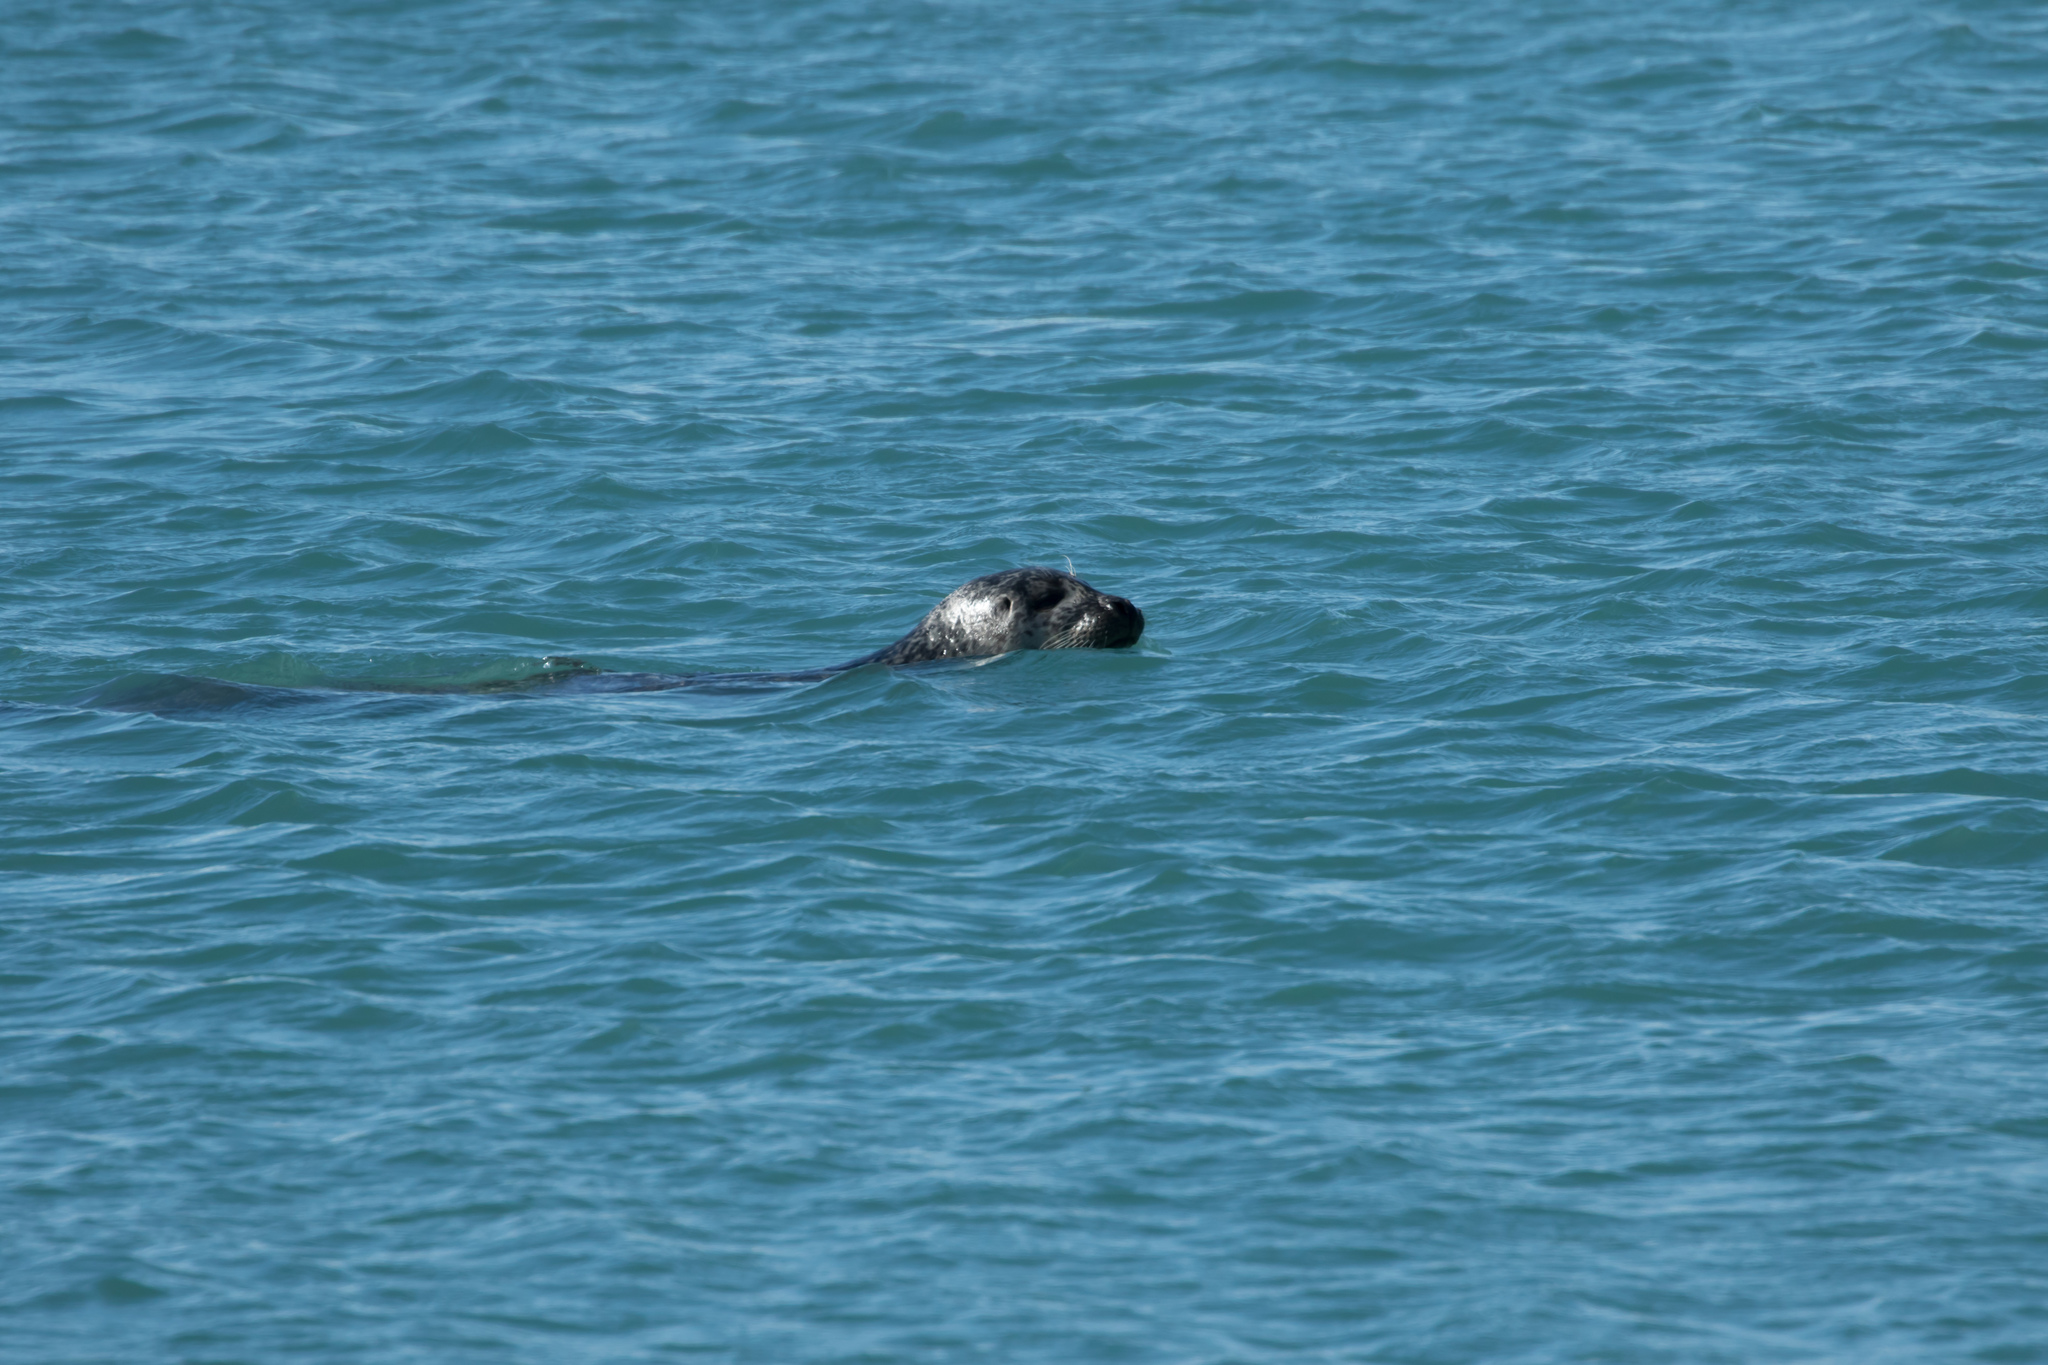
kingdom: Animalia
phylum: Chordata
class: Mammalia
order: Carnivora
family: Phocidae
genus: Phoca
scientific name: Phoca vitulina
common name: Harbor seal
